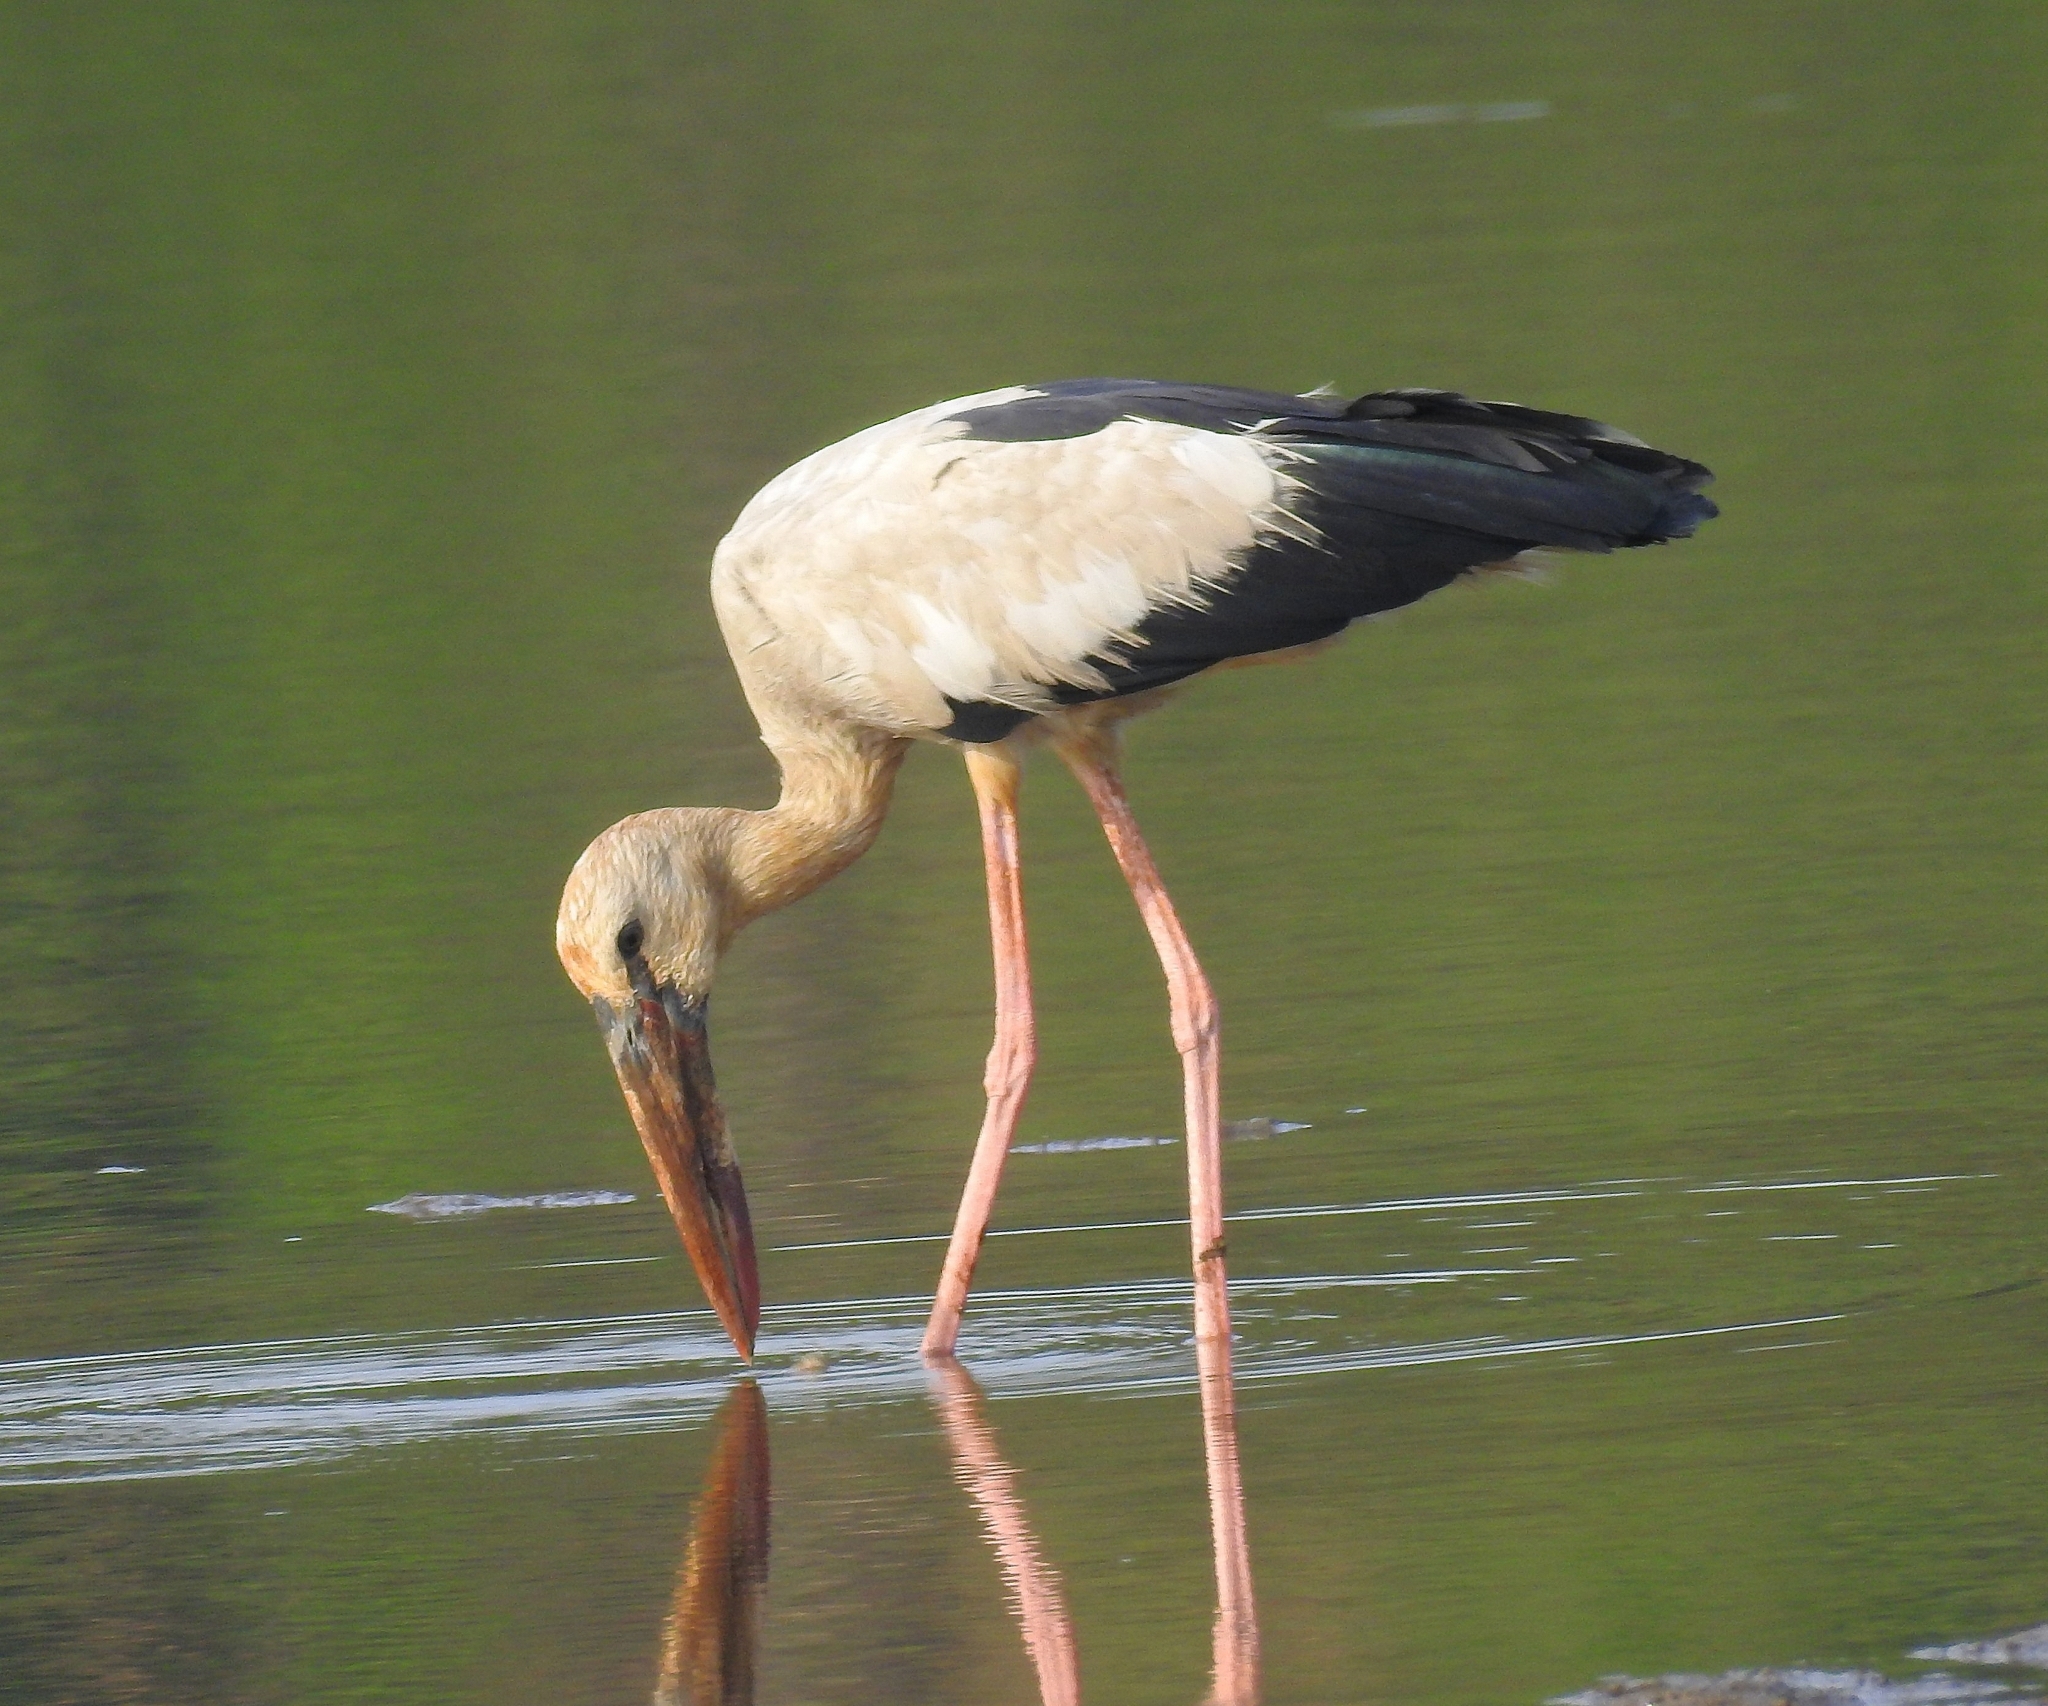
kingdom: Animalia
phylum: Chordata
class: Aves
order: Ciconiiformes
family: Ciconiidae
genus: Anastomus
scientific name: Anastomus oscitans
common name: Asian openbill
